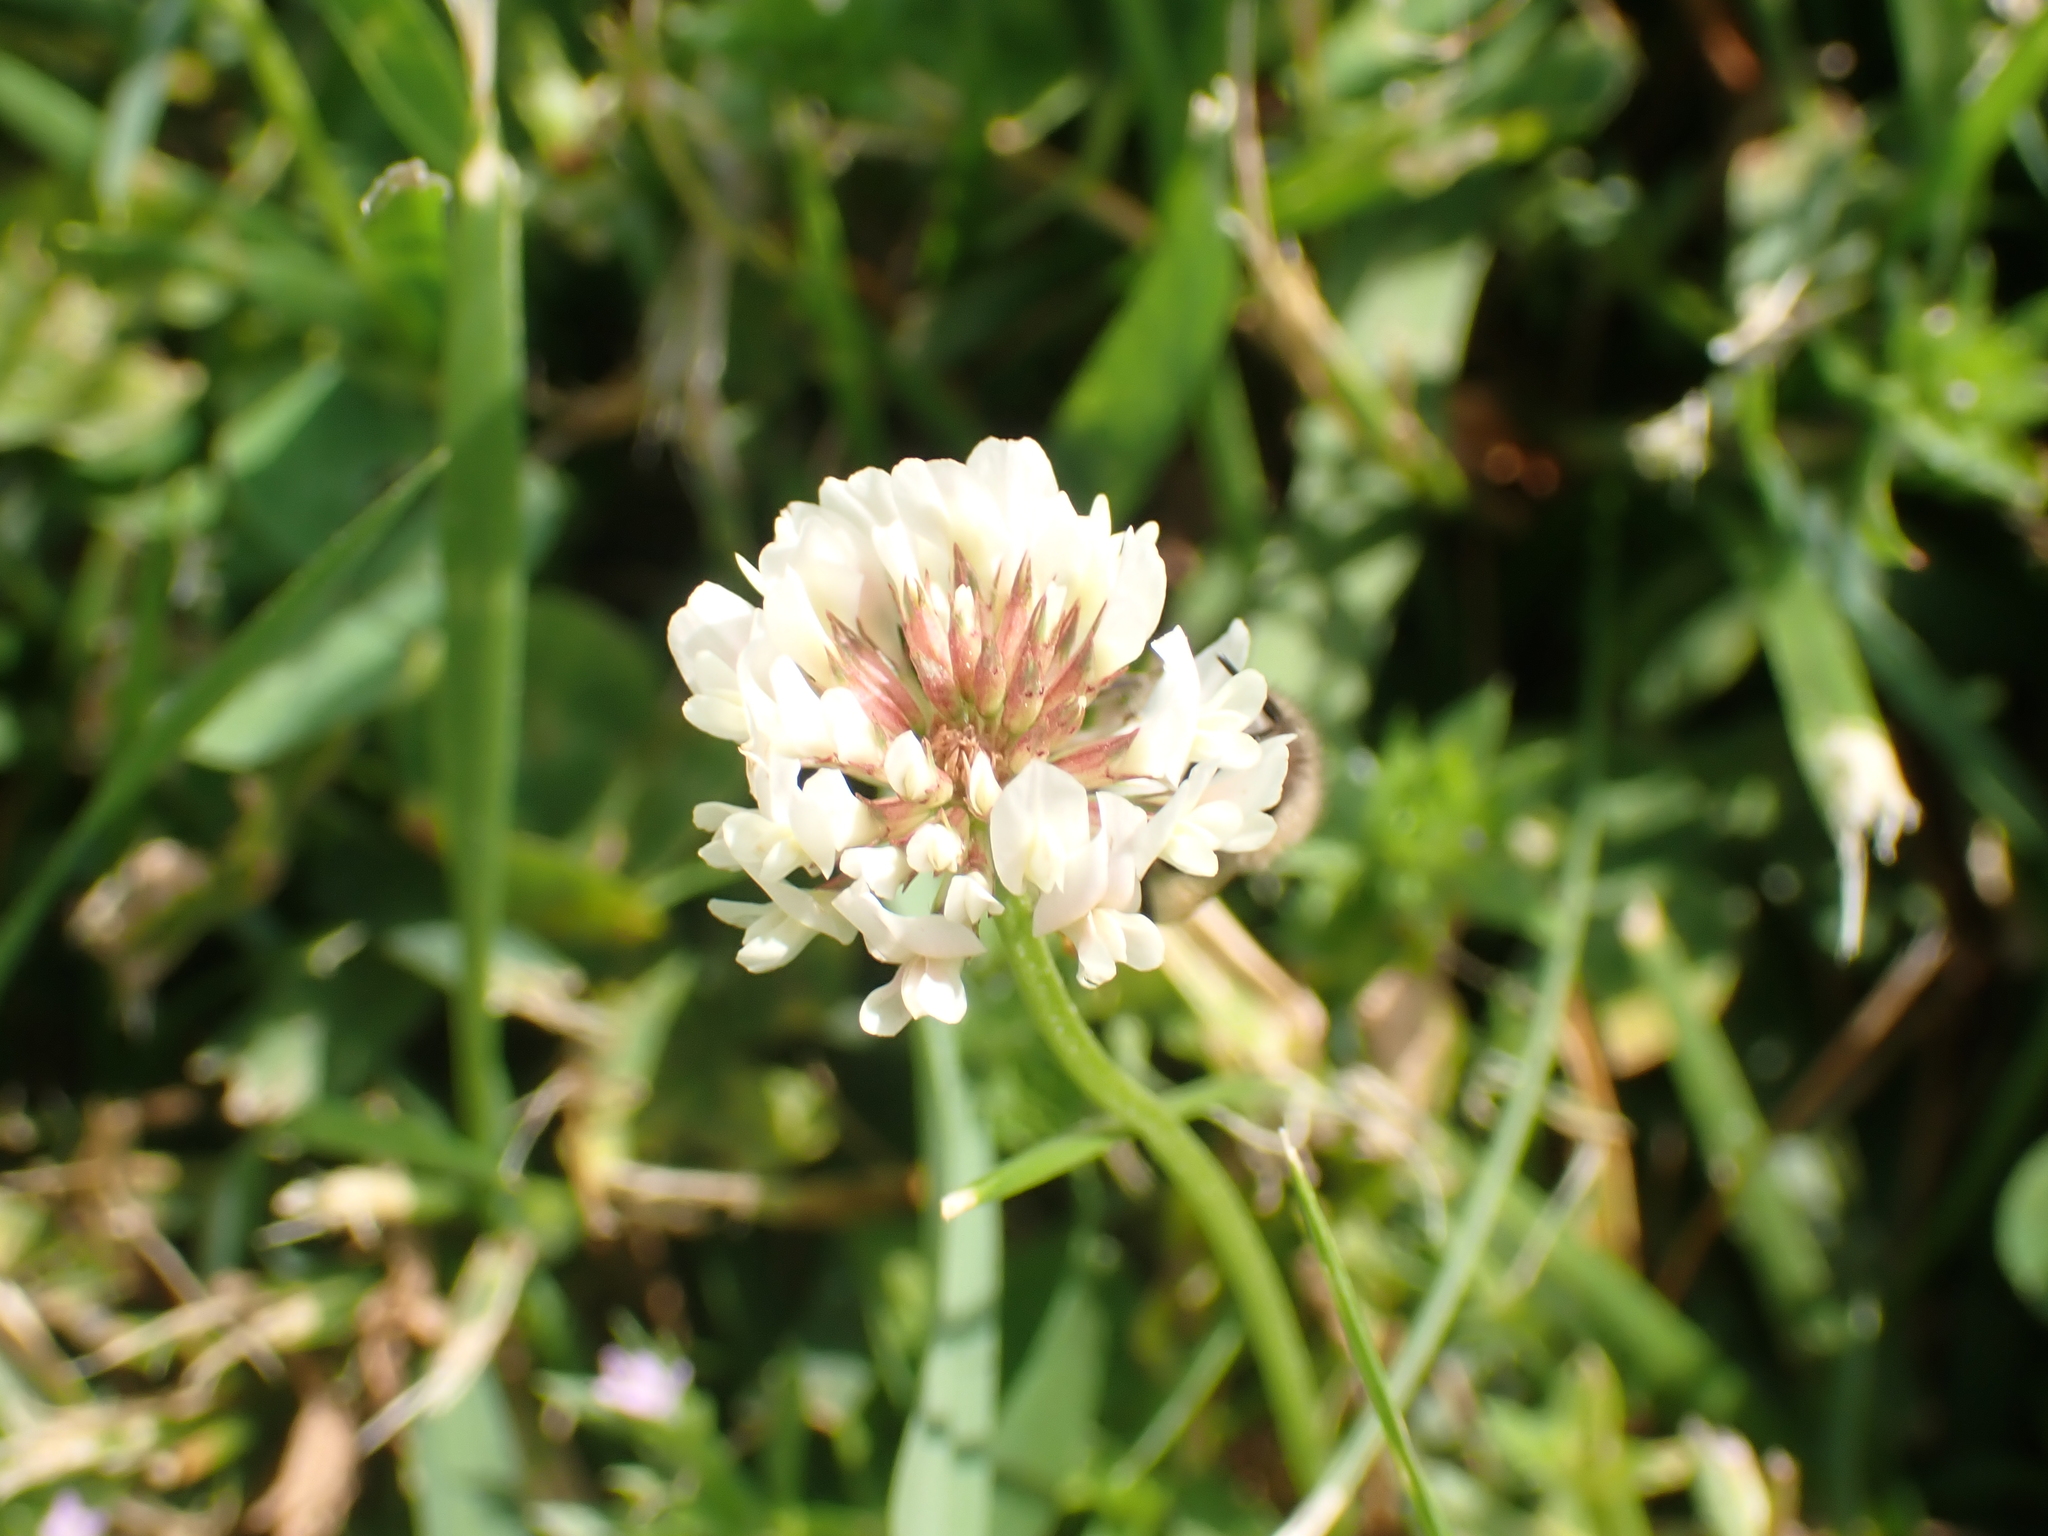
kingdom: Animalia
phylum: Arthropoda
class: Insecta
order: Hymenoptera
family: Apidae
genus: Apis
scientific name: Apis mellifera
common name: Honey bee
